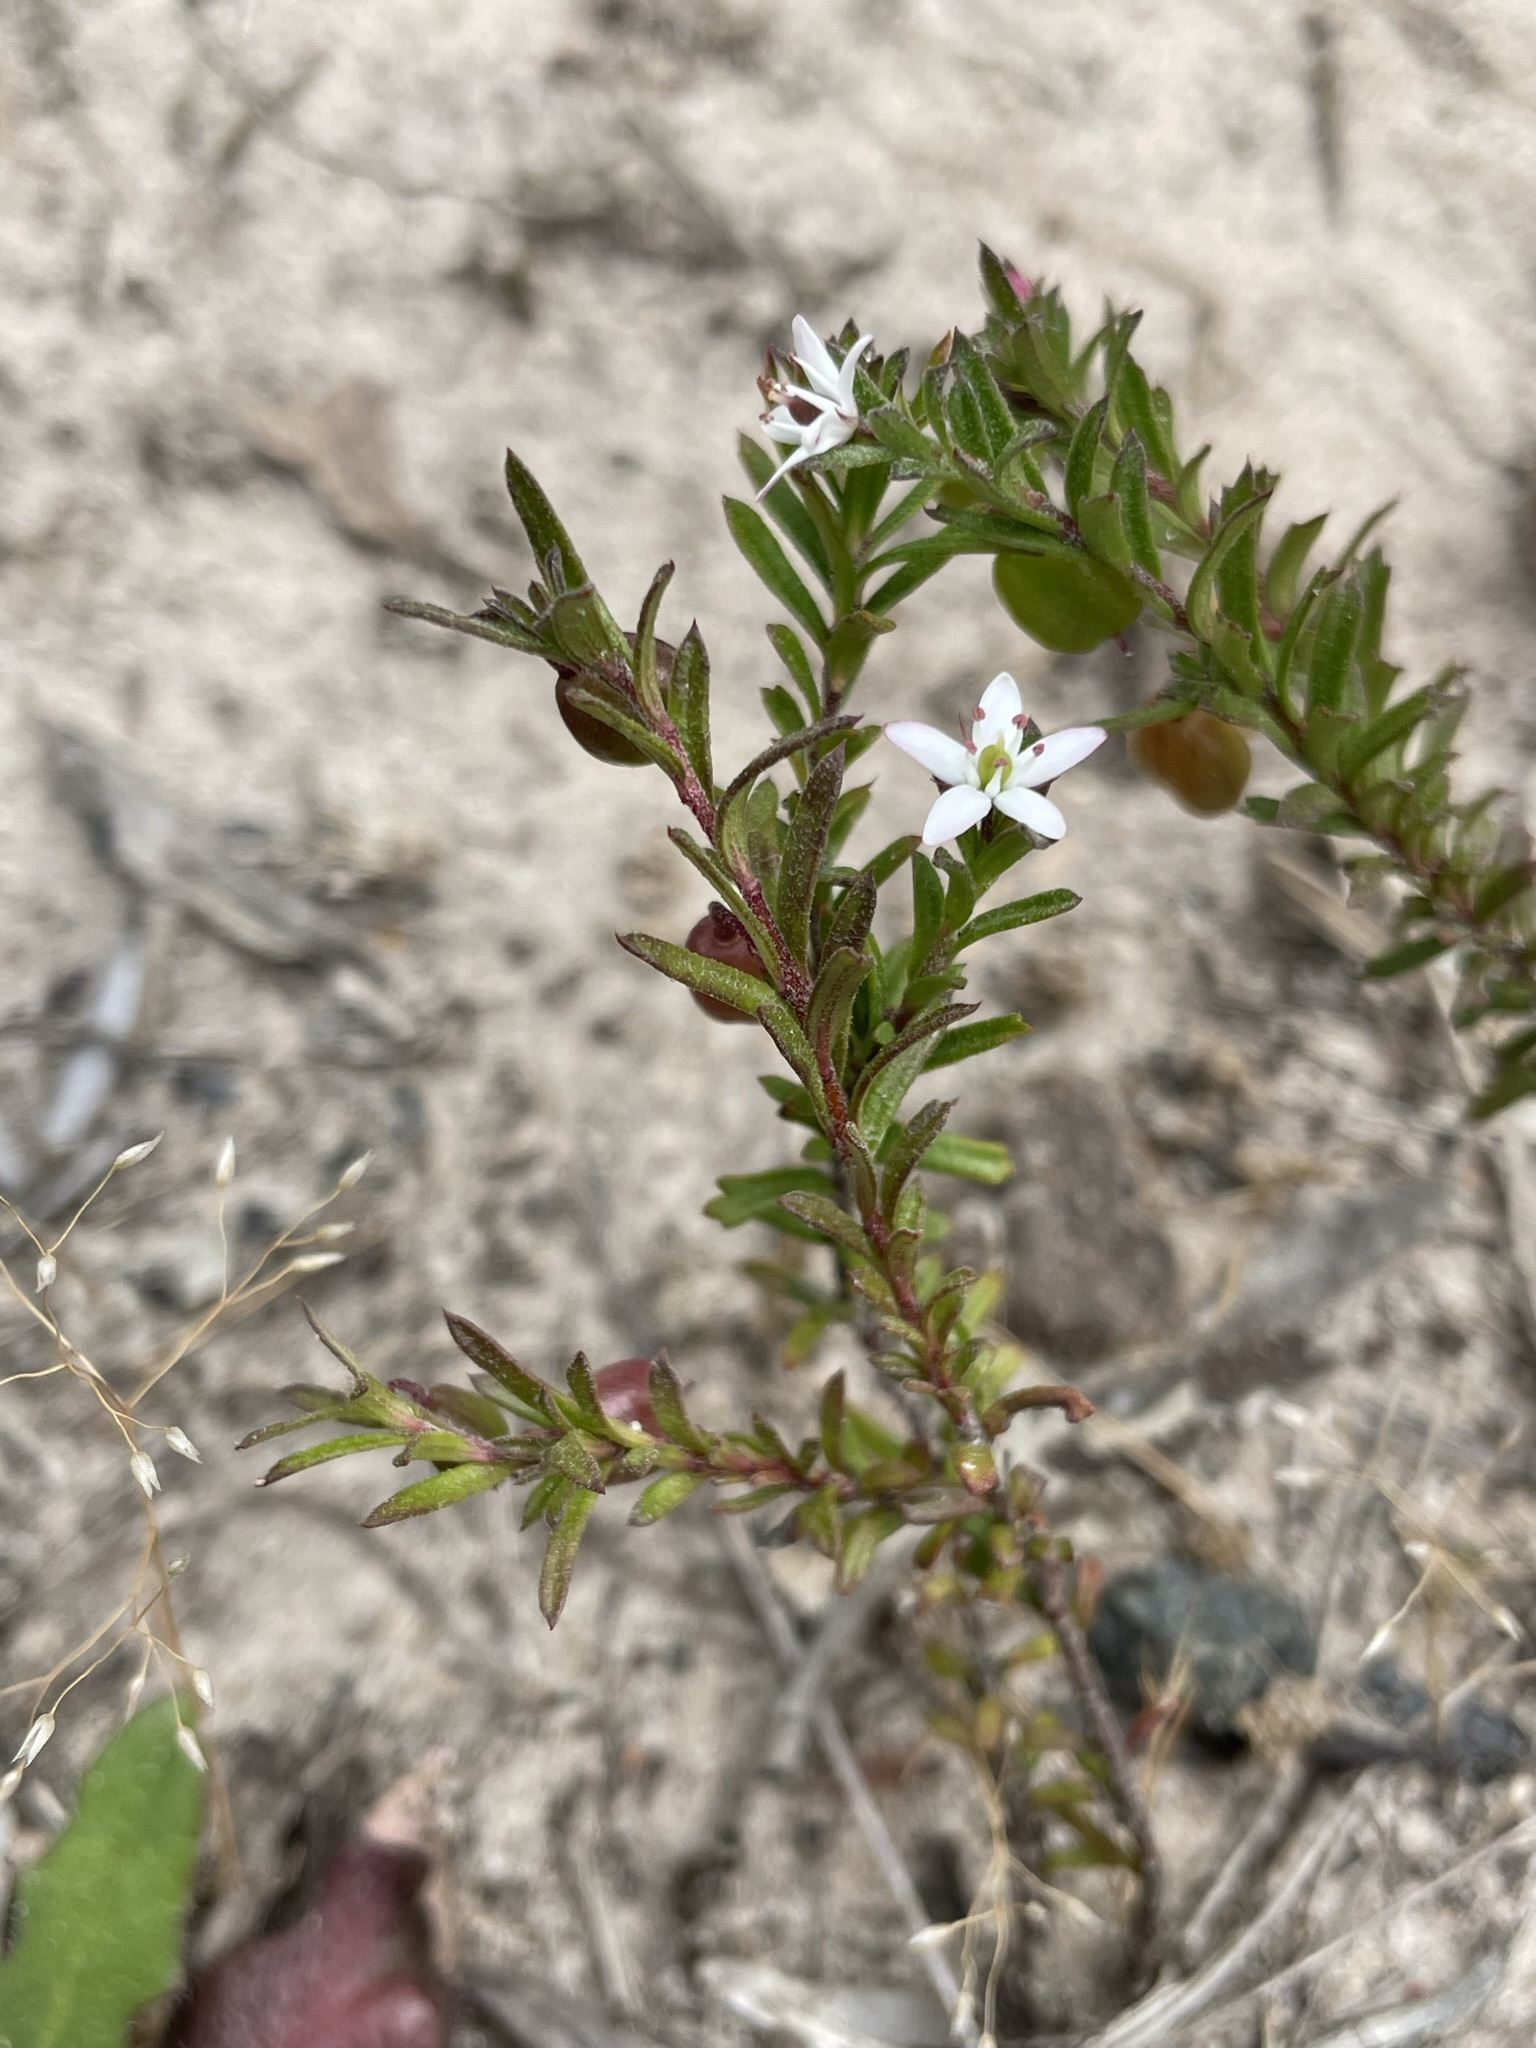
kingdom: Plantae
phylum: Tracheophyta
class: Magnoliopsida
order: Apiales
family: Pittosporaceae
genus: Rhytidosporum
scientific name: Rhytidosporum procumbens
